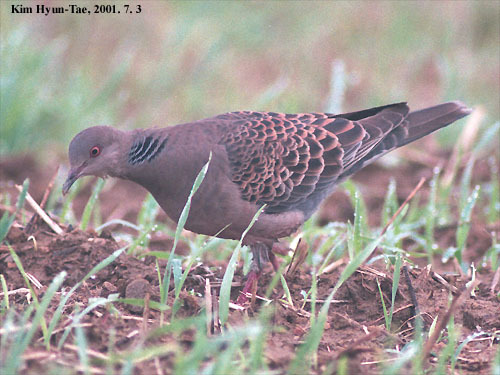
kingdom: Animalia
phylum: Chordata
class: Aves
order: Columbiformes
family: Columbidae
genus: Streptopelia
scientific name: Streptopelia orientalis
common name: Oriental turtle dove
